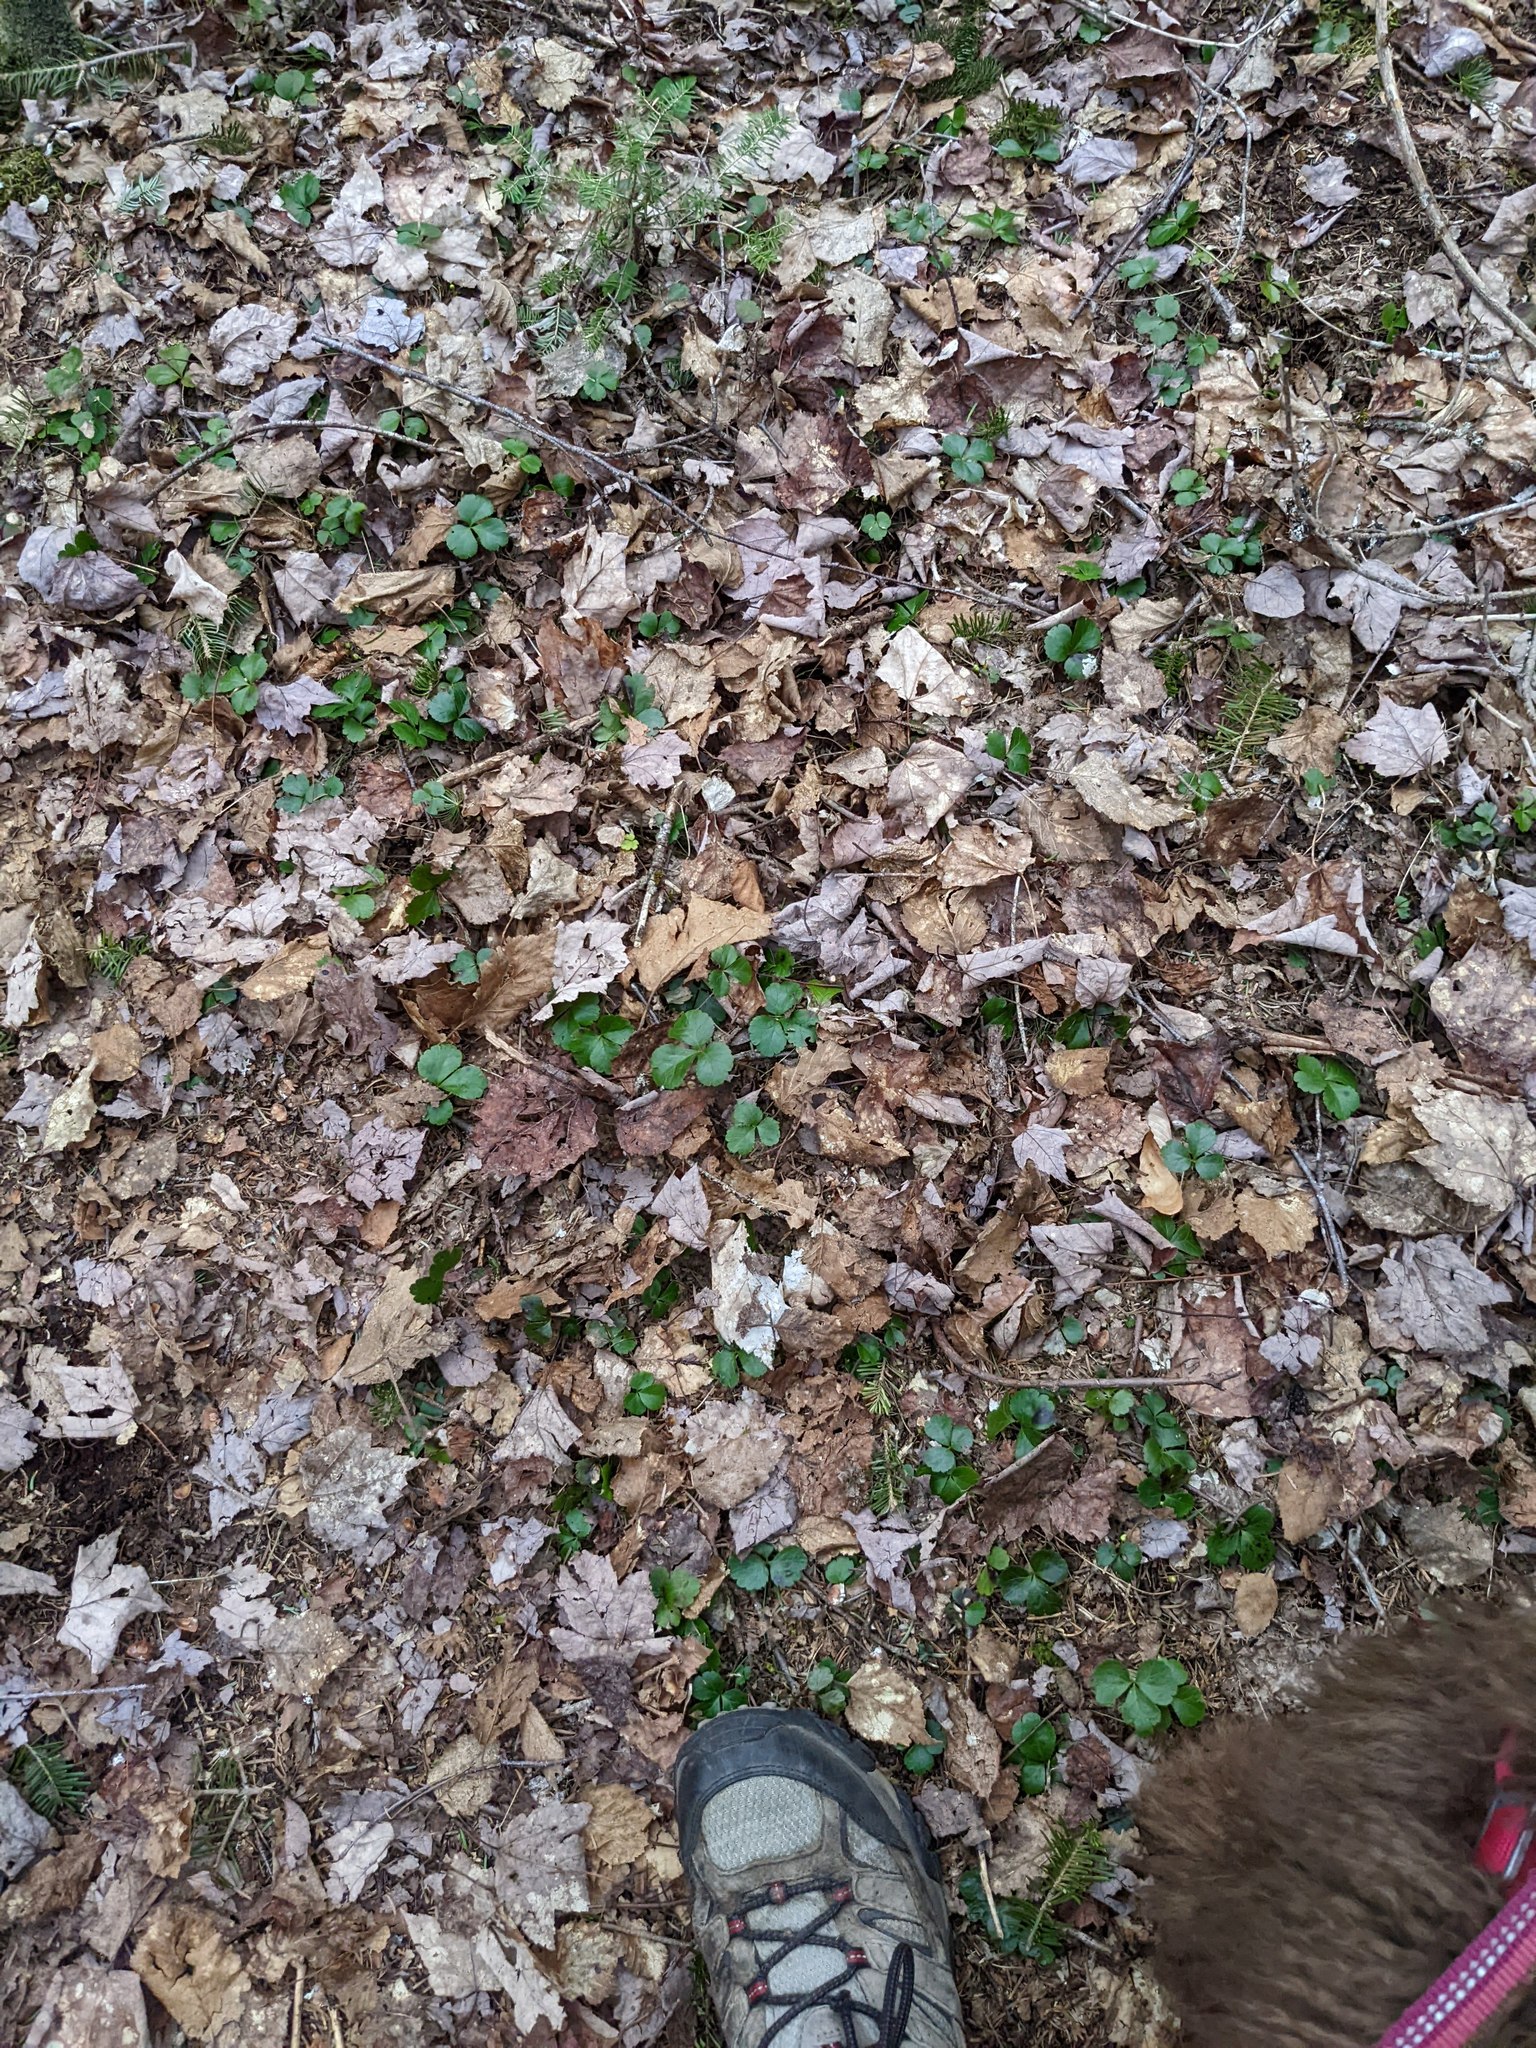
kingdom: Plantae
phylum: Tracheophyta
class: Magnoliopsida
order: Ranunculales
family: Ranunculaceae
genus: Coptis
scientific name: Coptis trifolia
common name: Canker-root
